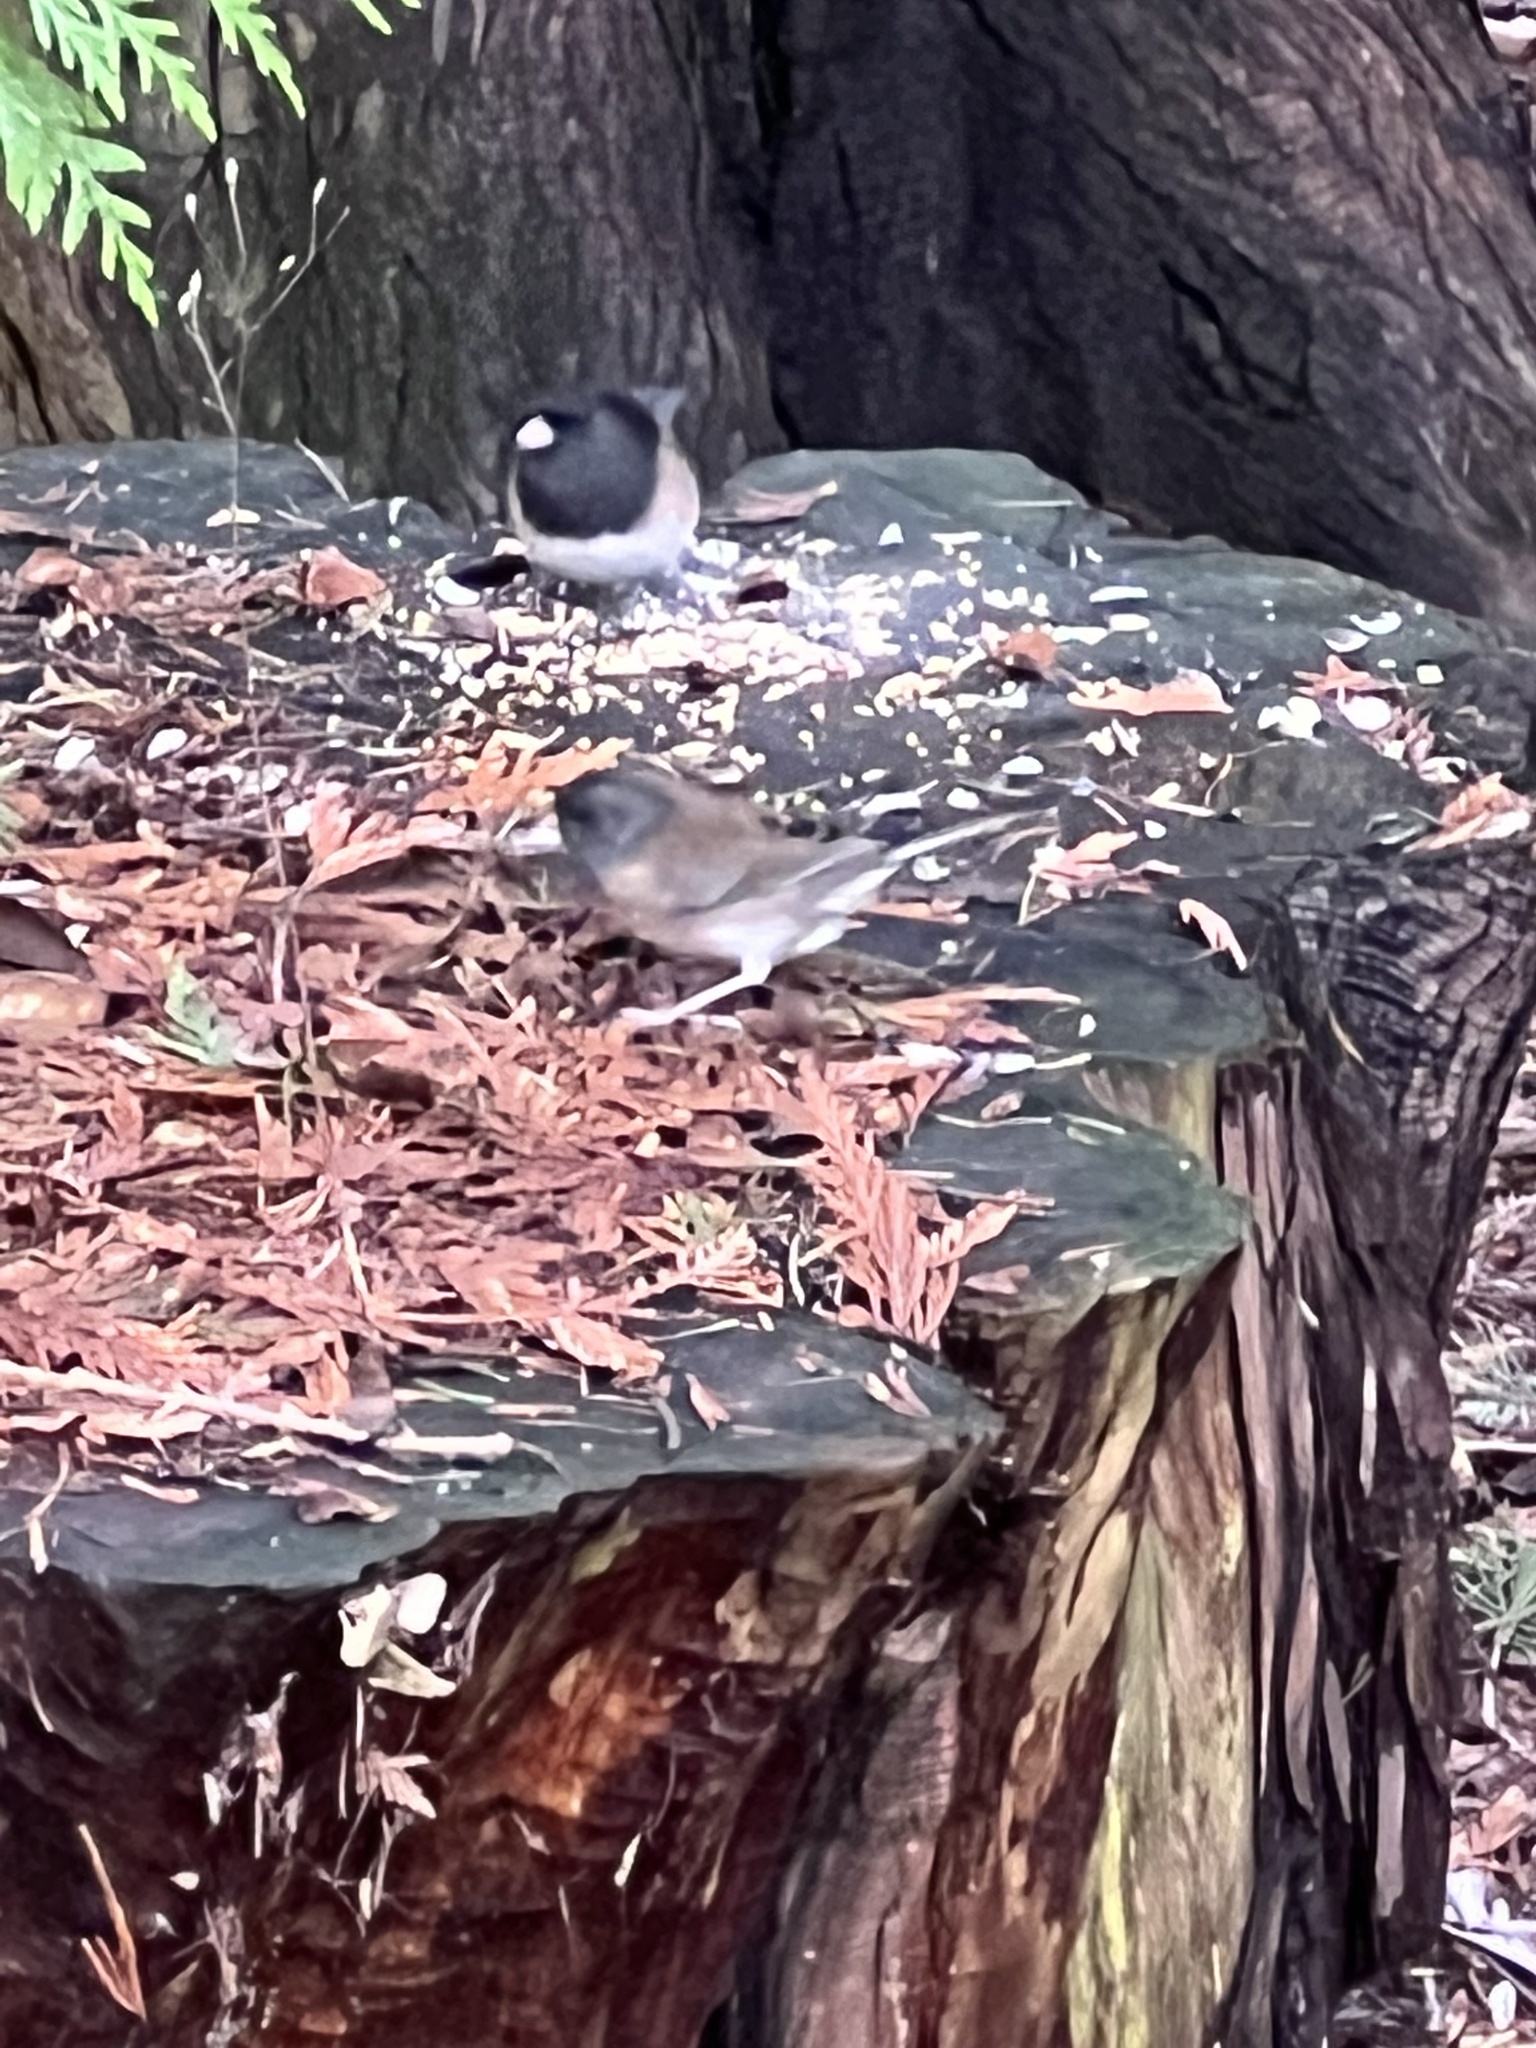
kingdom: Animalia
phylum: Chordata
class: Aves
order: Passeriformes
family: Passerellidae
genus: Junco
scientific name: Junco hyemalis
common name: Dark-eyed junco
